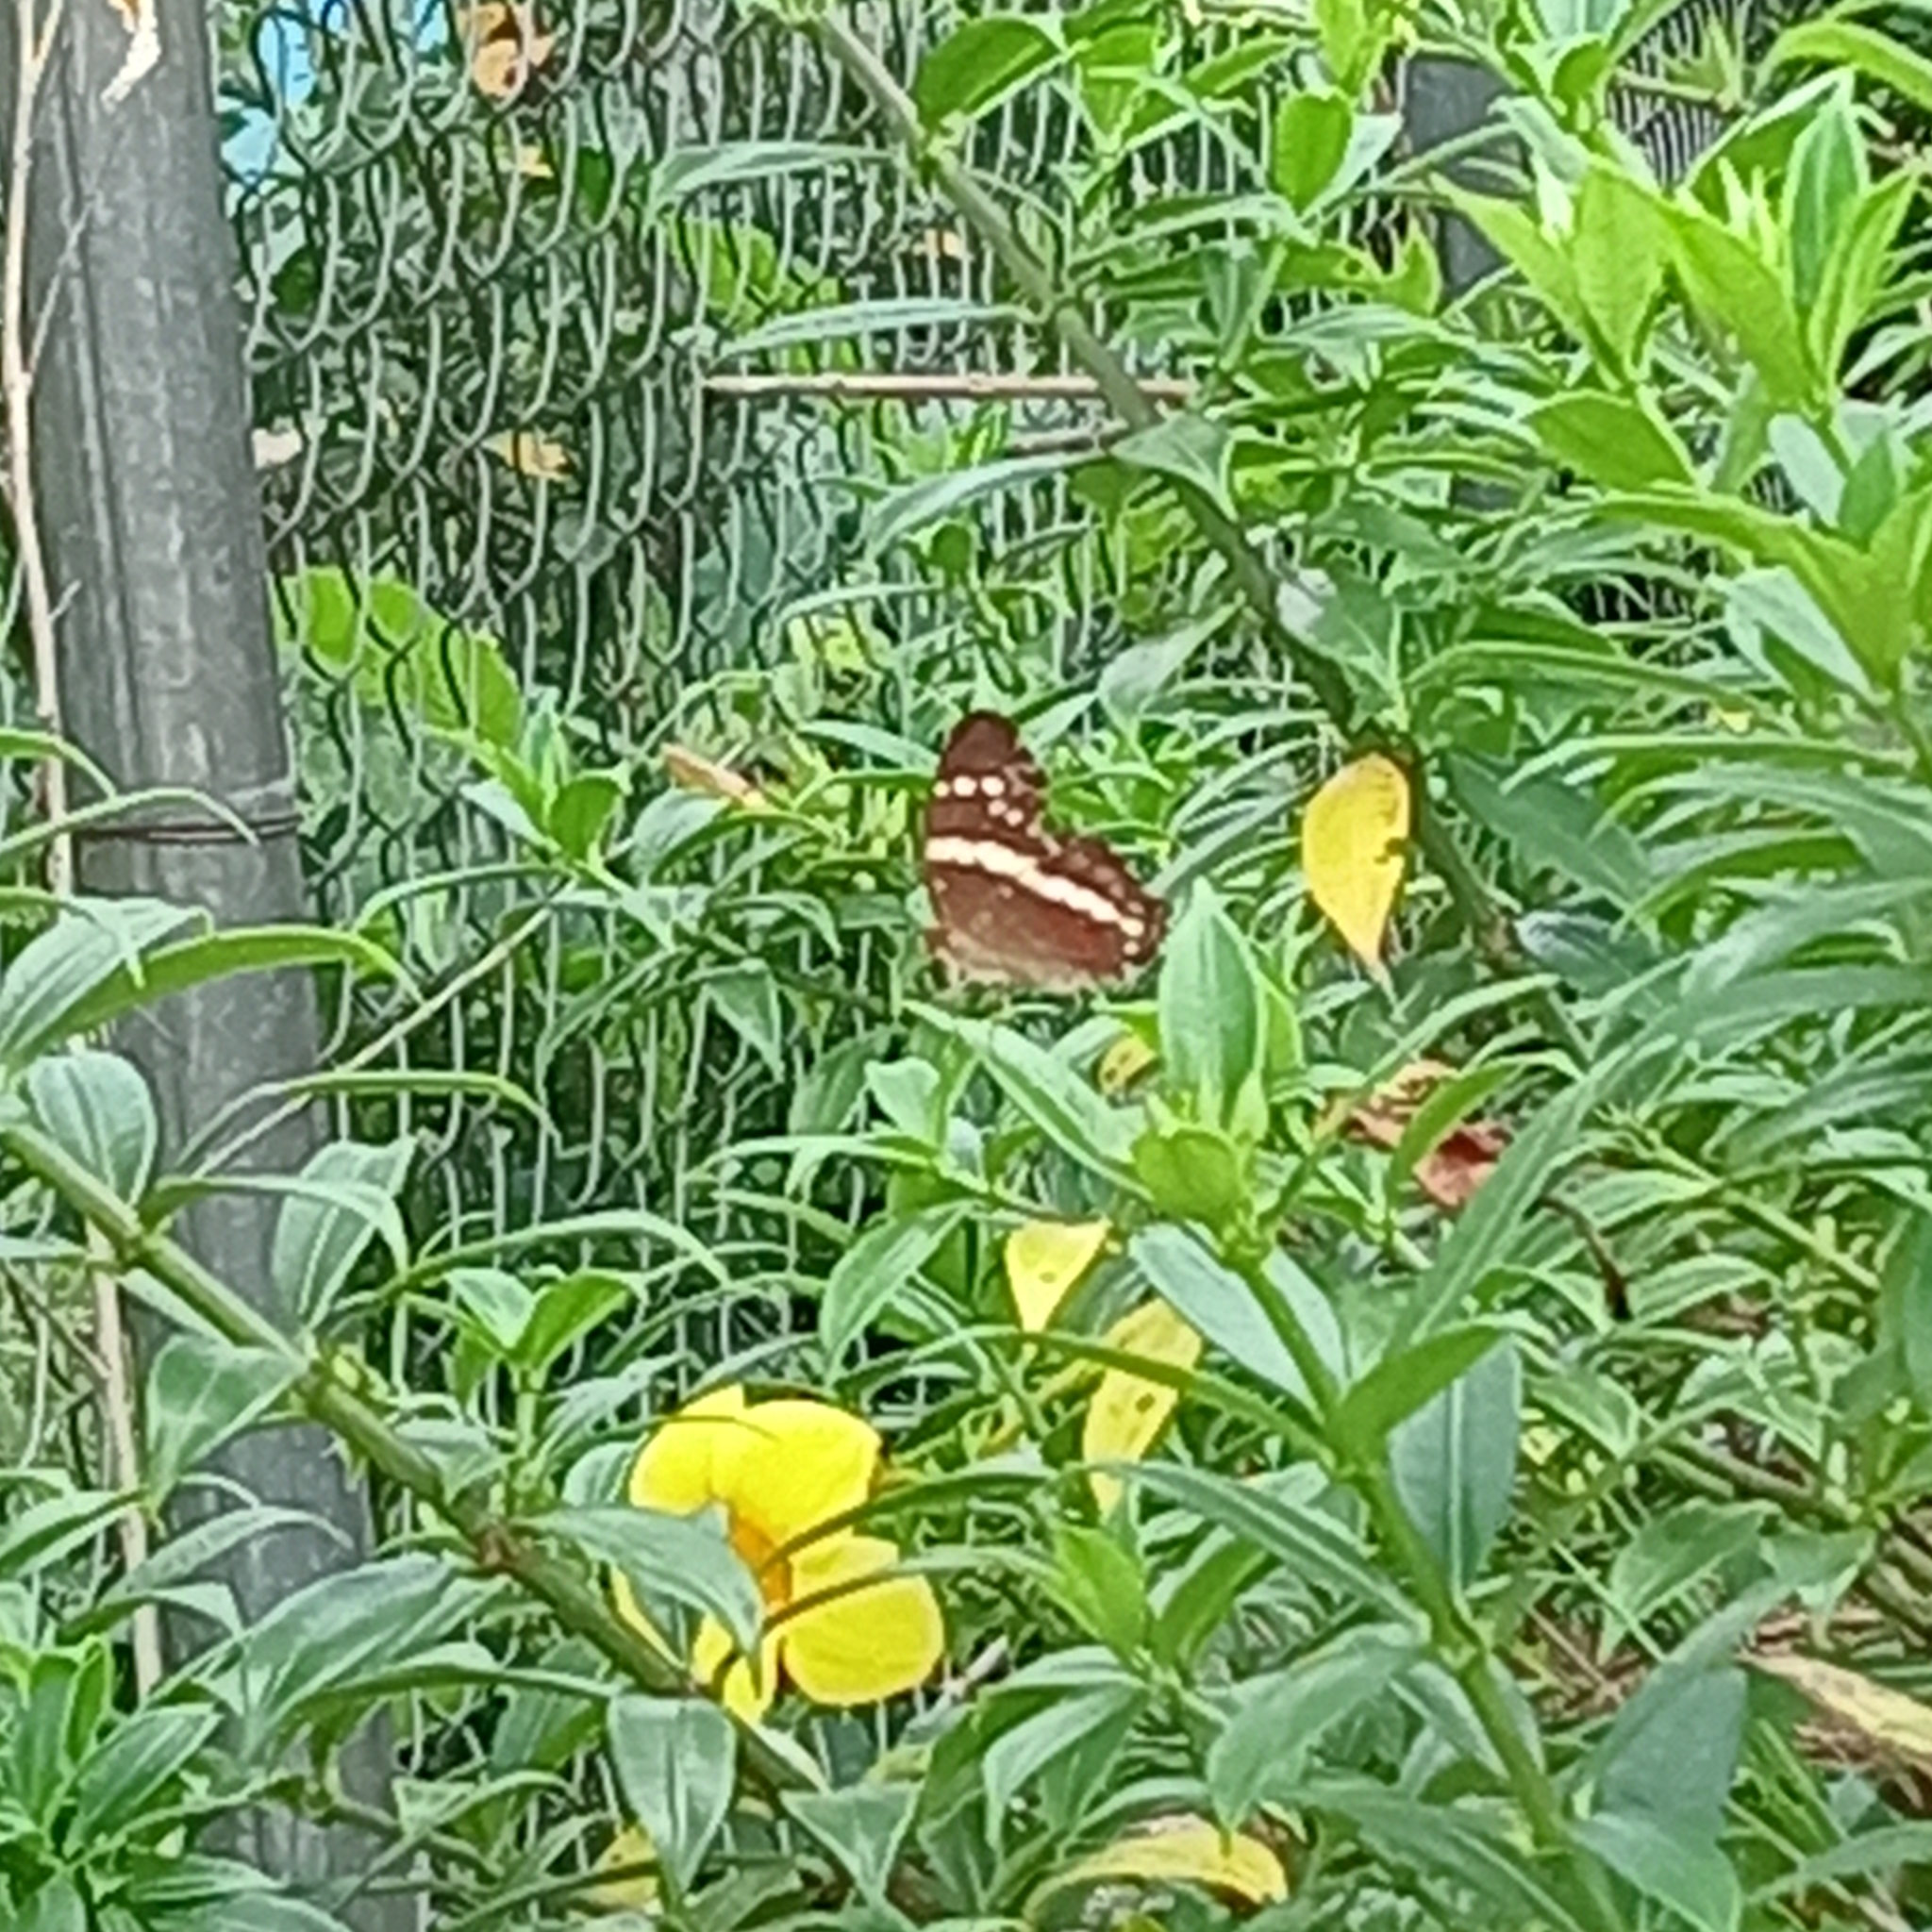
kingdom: Animalia
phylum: Arthropoda
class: Insecta
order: Lepidoptera
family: Nymphalidae
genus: Anartia
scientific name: Anartia fatima
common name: Banded peacock
